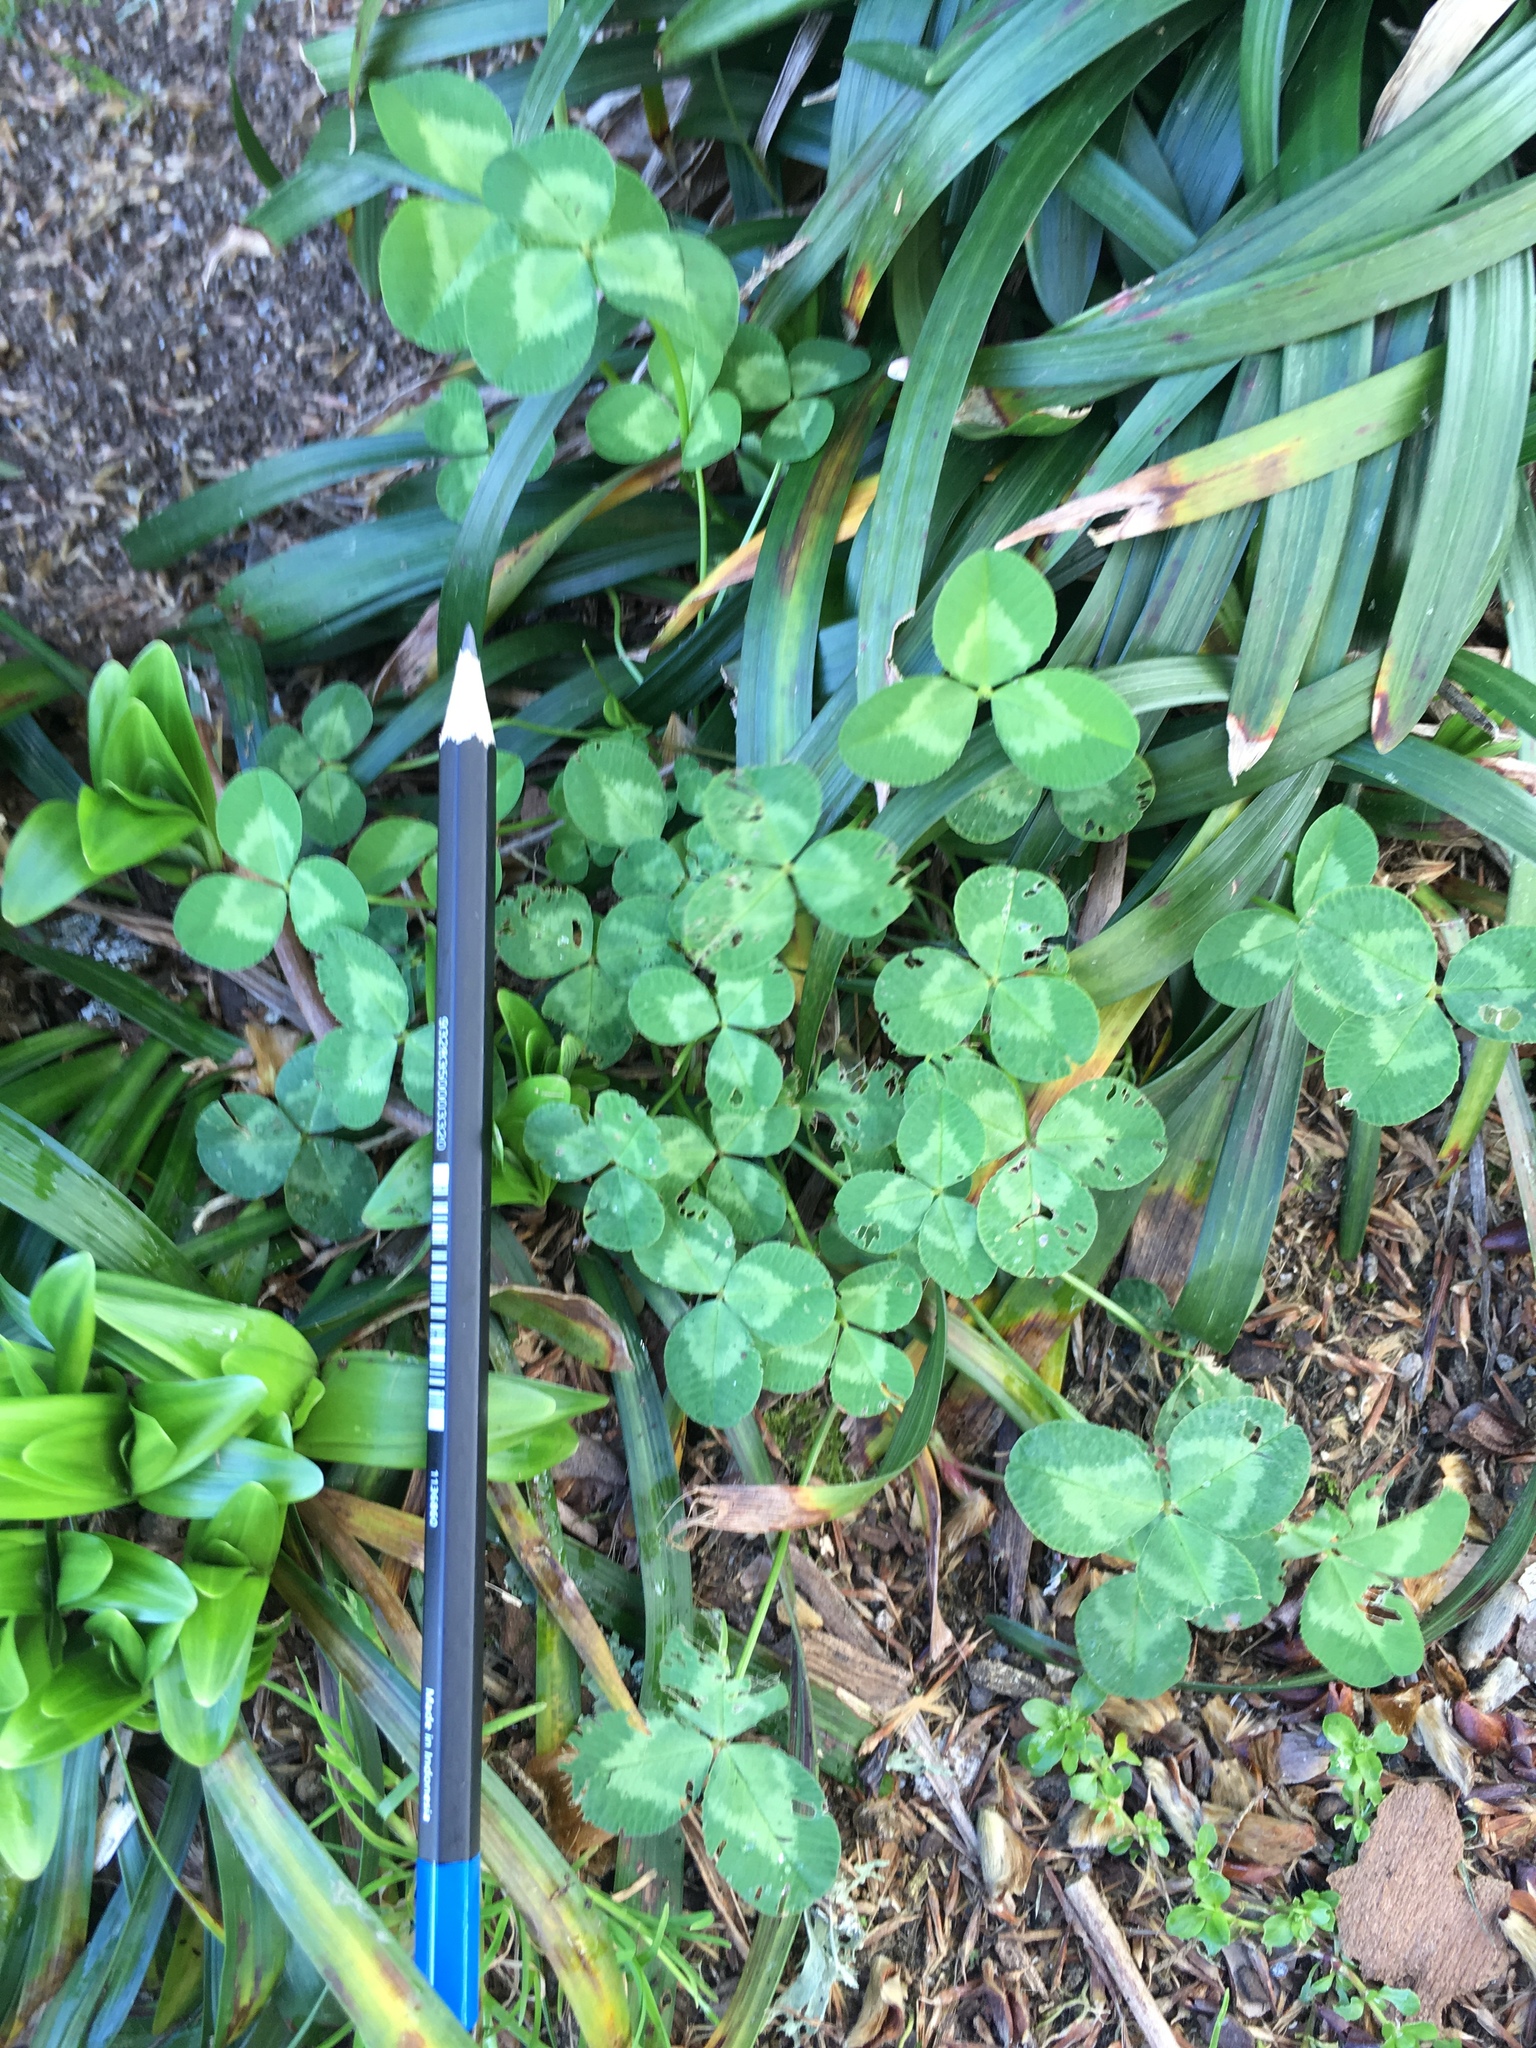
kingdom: Plantae
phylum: Tracheophyta
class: Magnoliopsida
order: Fabales
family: Fabaceae
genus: Trifolium
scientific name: Trifolium repens
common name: White clover
